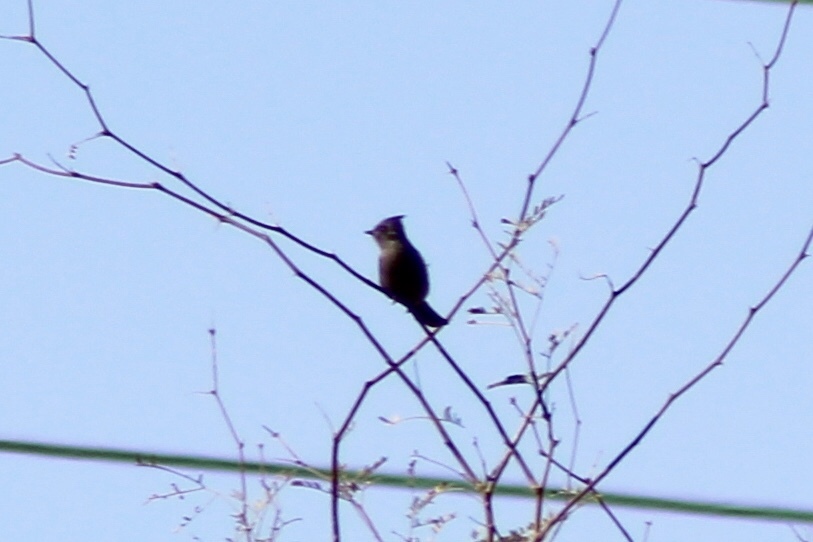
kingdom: Animalia
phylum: Chordata
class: Aves
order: Passeriformes
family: Ptilogonatidae
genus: Phainopepla
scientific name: Phainopepla nitens
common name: Phainopepla
